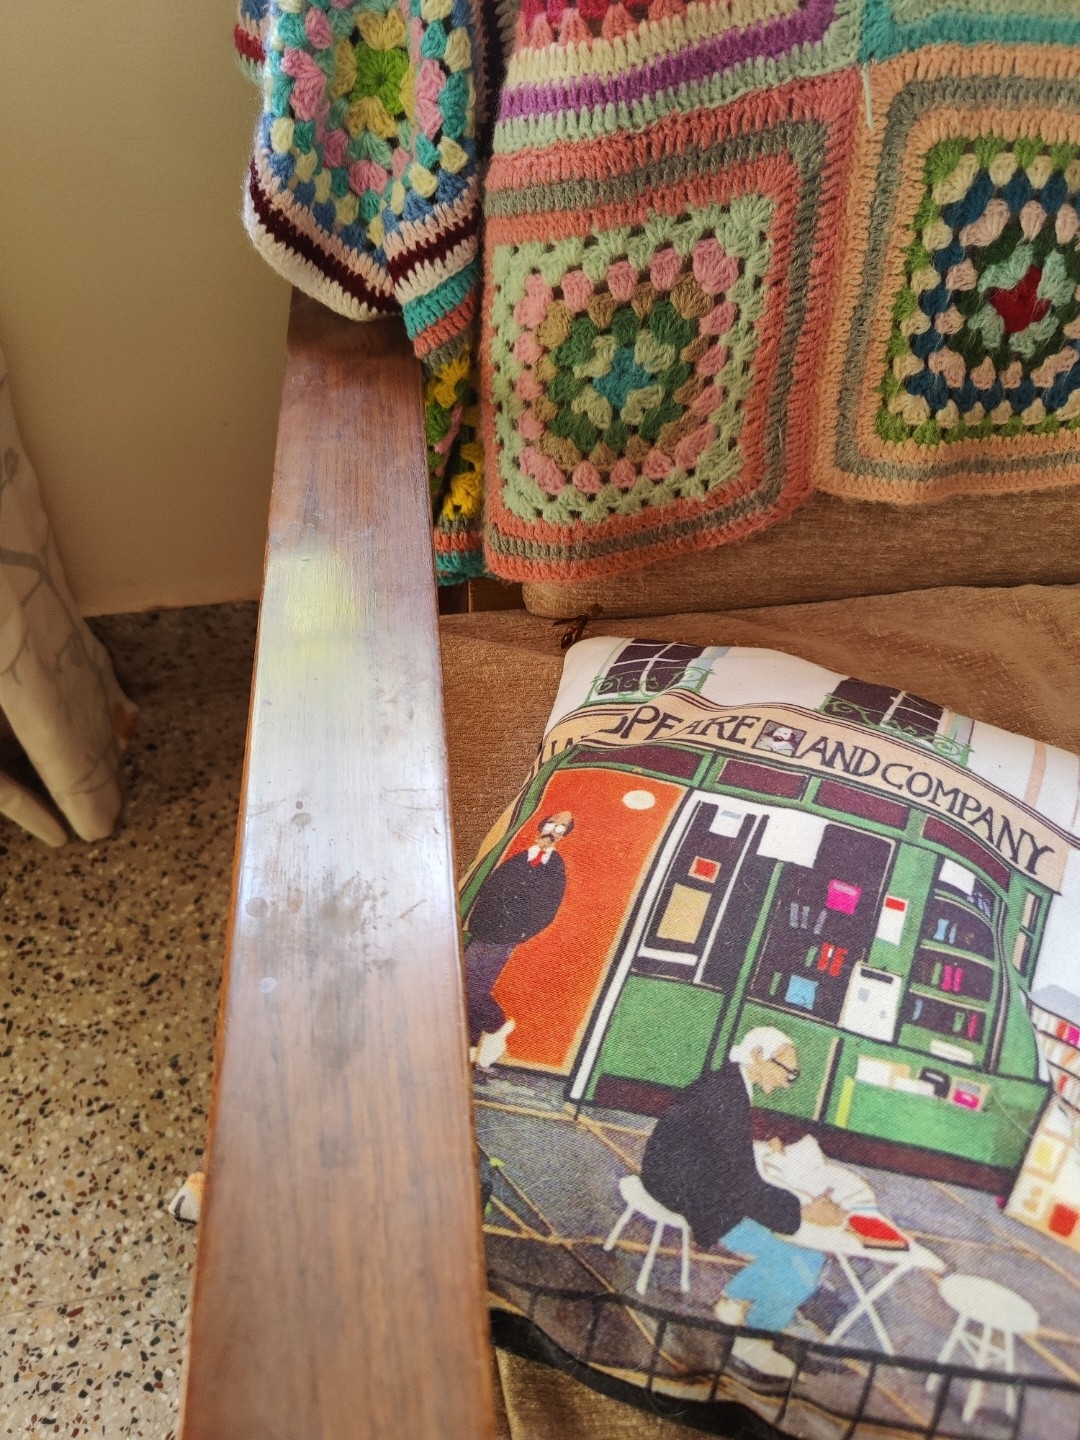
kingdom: Animalia
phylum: Arthropoda
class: Insecta
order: Hymenoptera
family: Eumenidae
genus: Delta
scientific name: Delta conoideum
